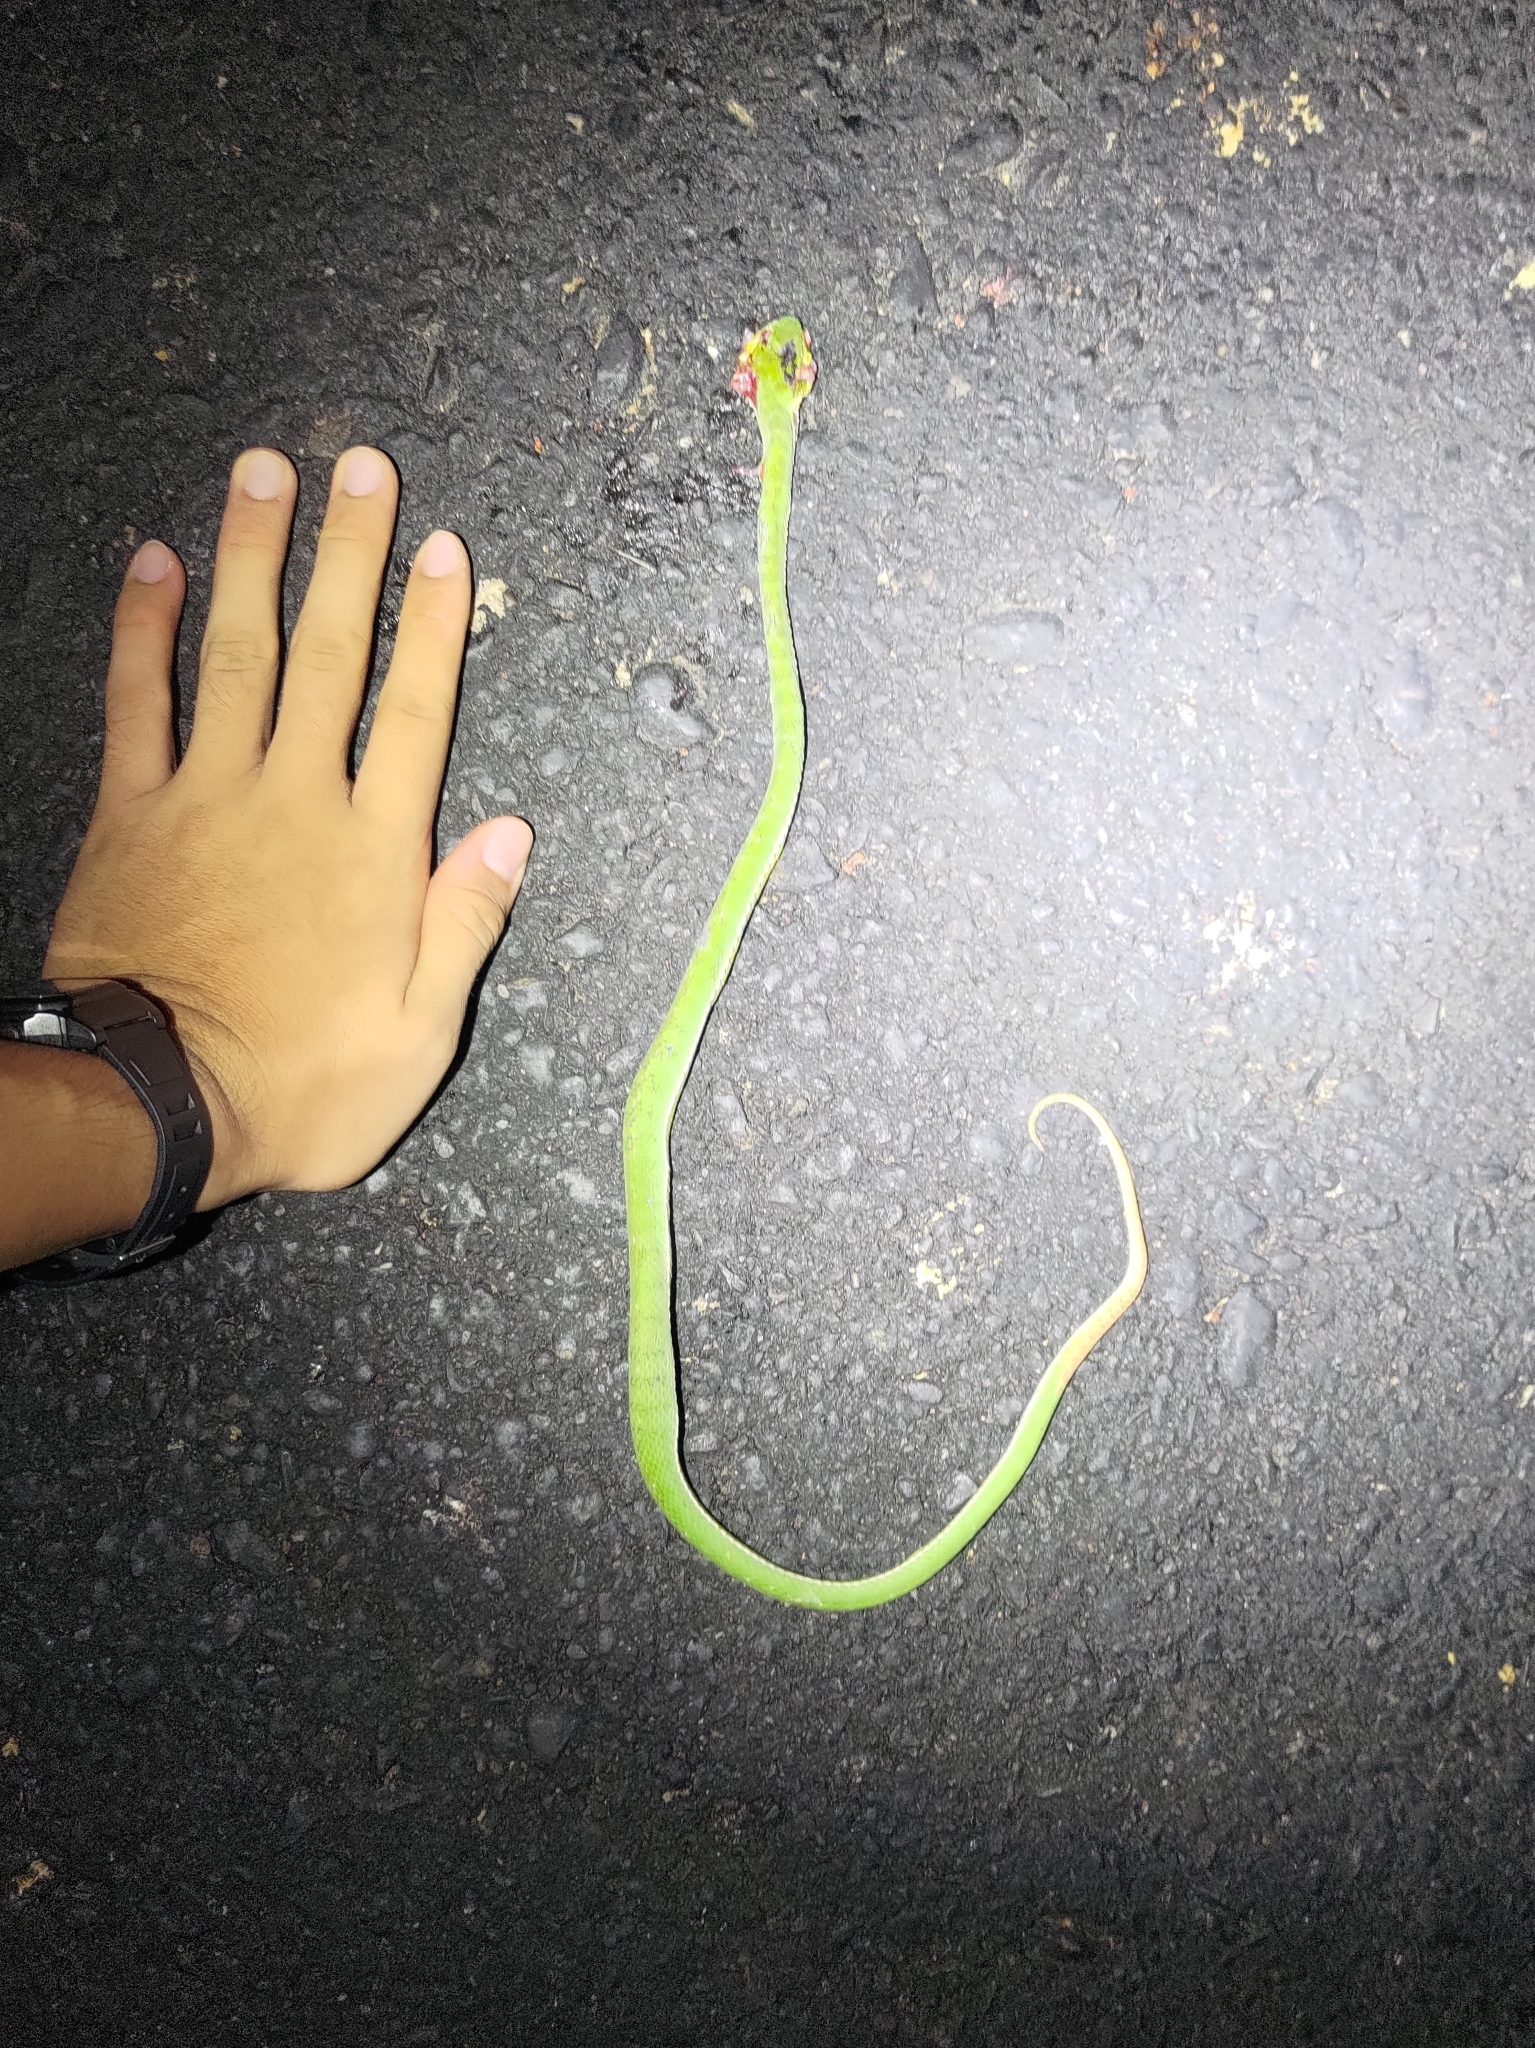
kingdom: Animalia
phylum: Chordata
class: Squamata
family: Viperidae
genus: Trimeresurus
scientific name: Trimeresurus stejnegeri
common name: Chen’s bamboo pit viper
